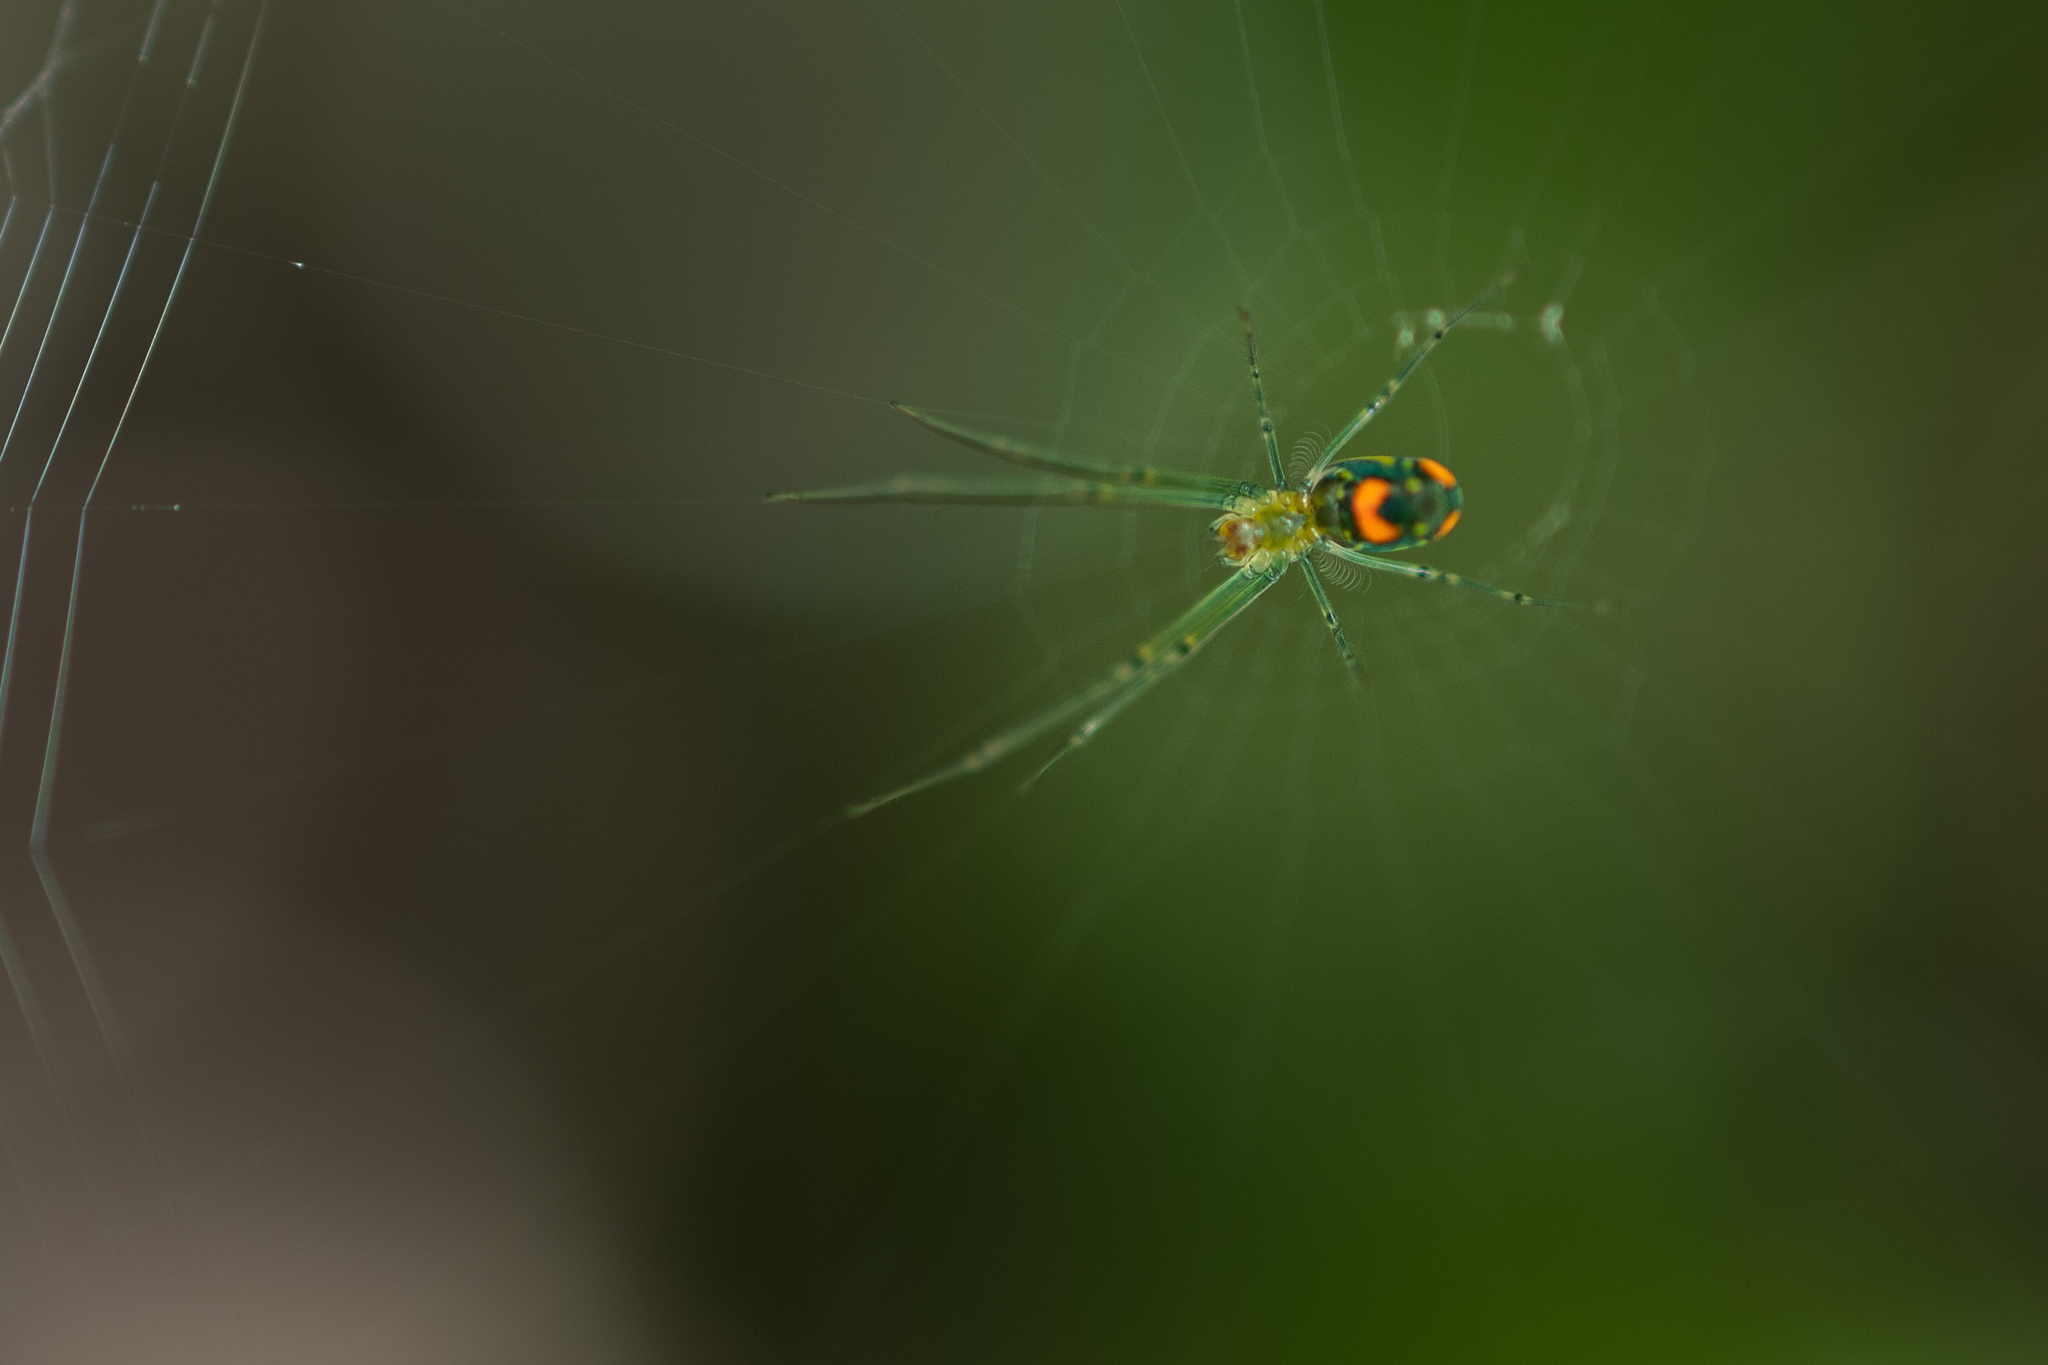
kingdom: Animalia
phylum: Arthropoda
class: Arachnida
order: Araneae
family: Tetragnathidae
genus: Leucauge
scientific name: Leucauge argyrobapta
